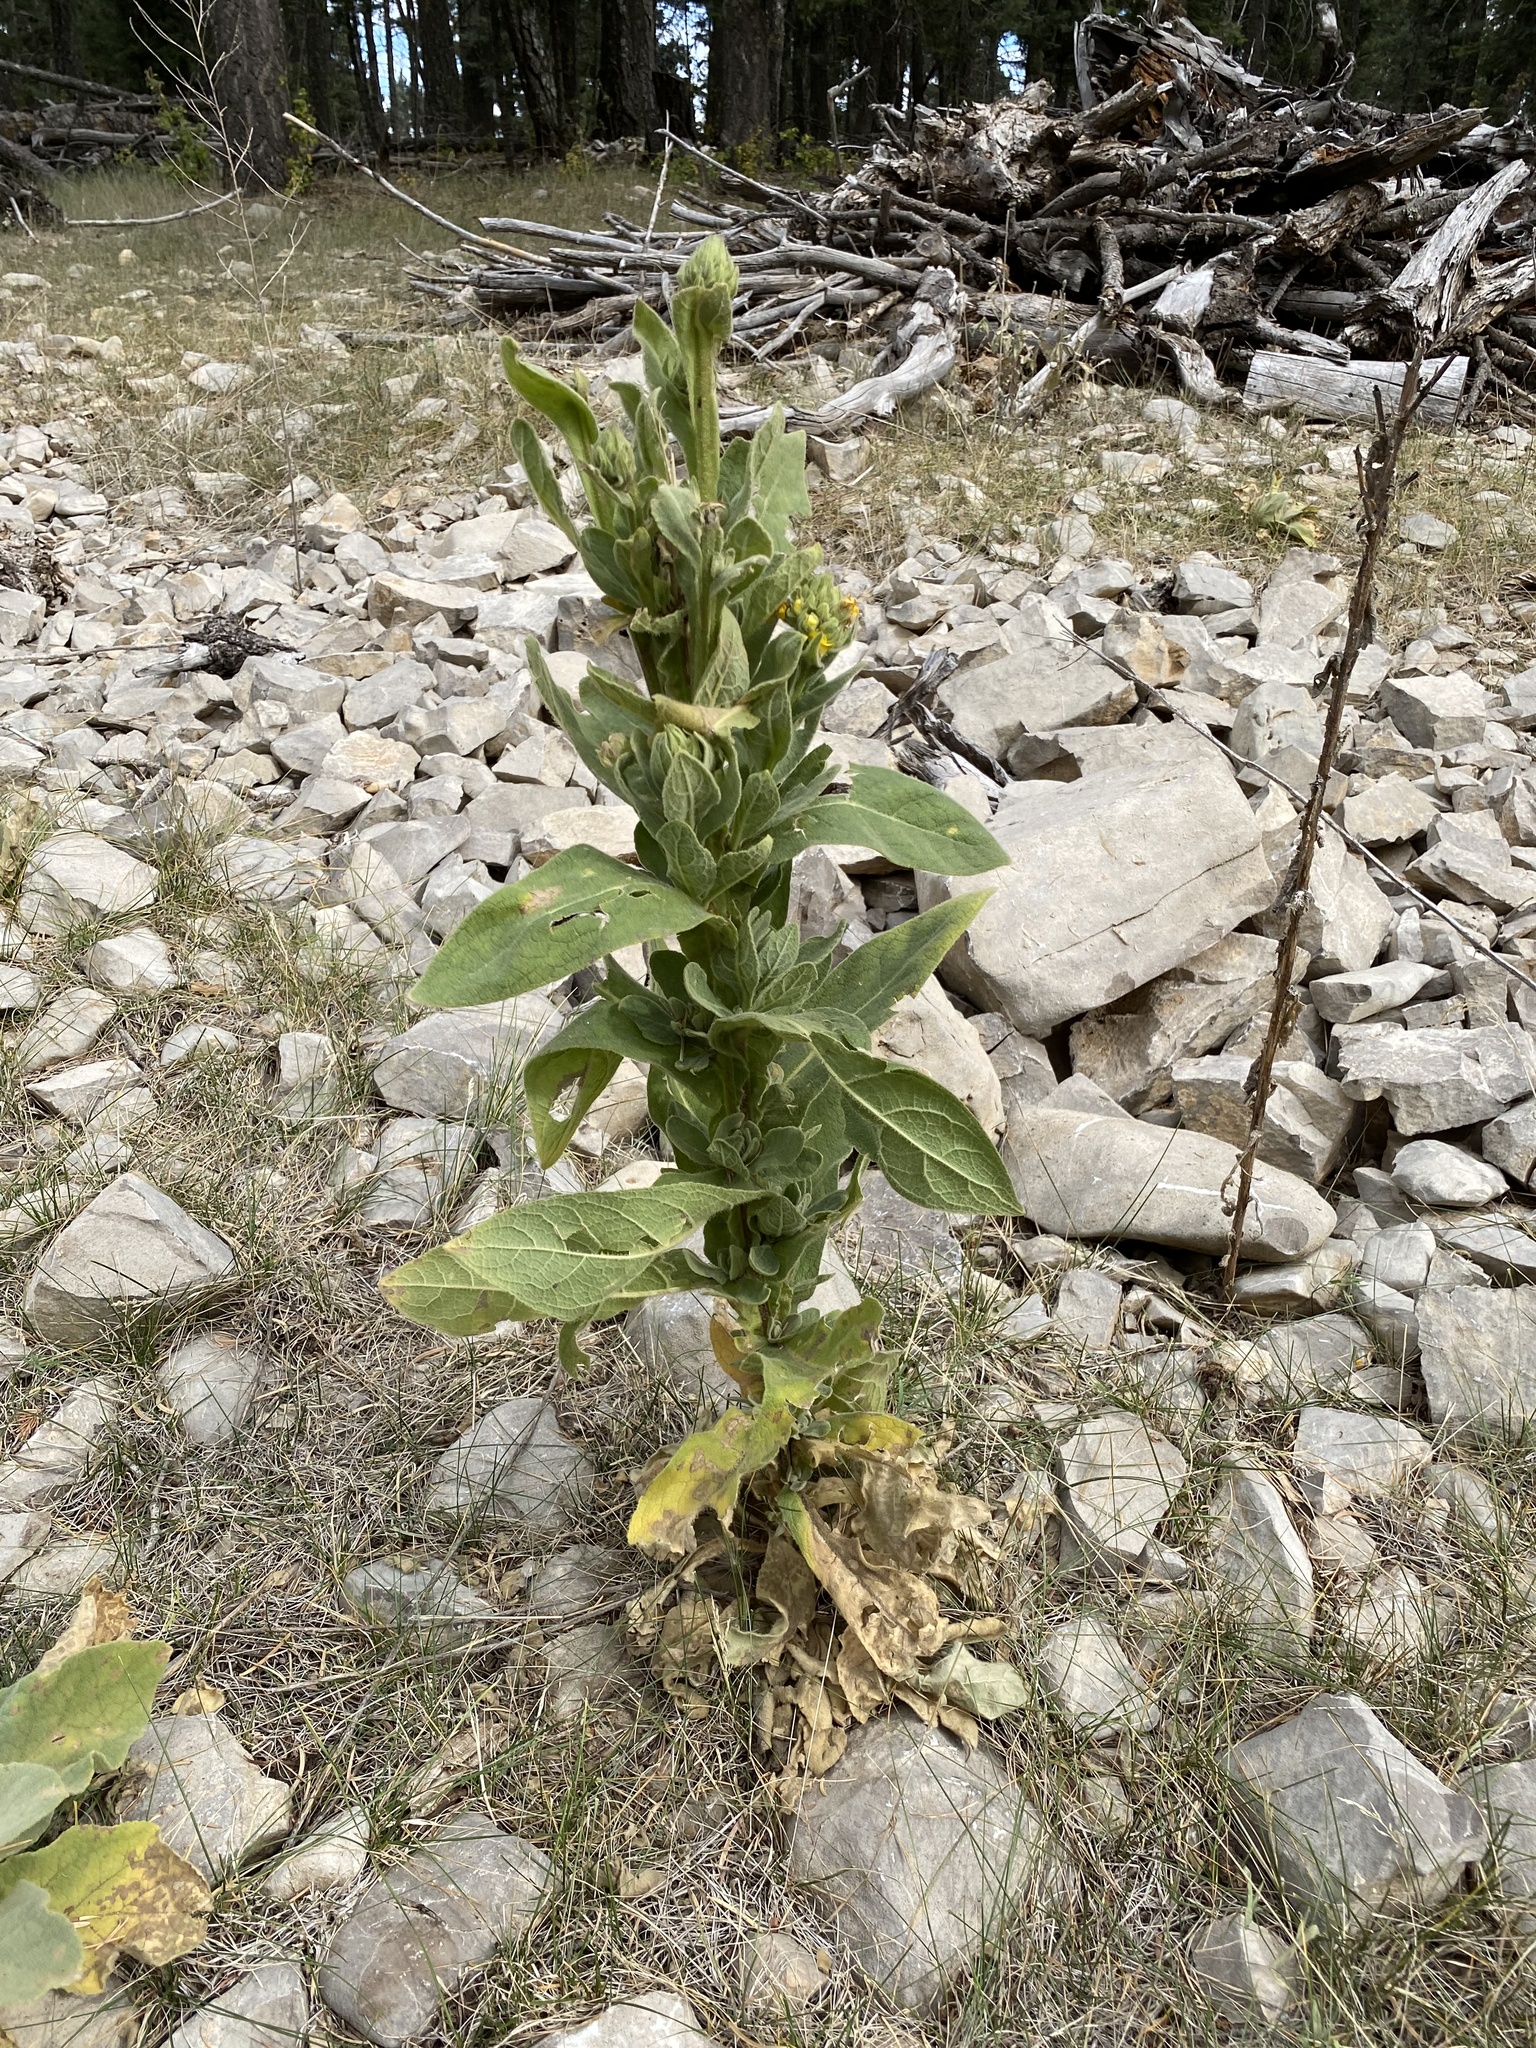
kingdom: Plantae
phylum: Tracheophyta
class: Magnoliopsida
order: Lamiales
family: Scrophulariaceae
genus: Verbascum
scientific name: Verbascum thapsus
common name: Common mullein
